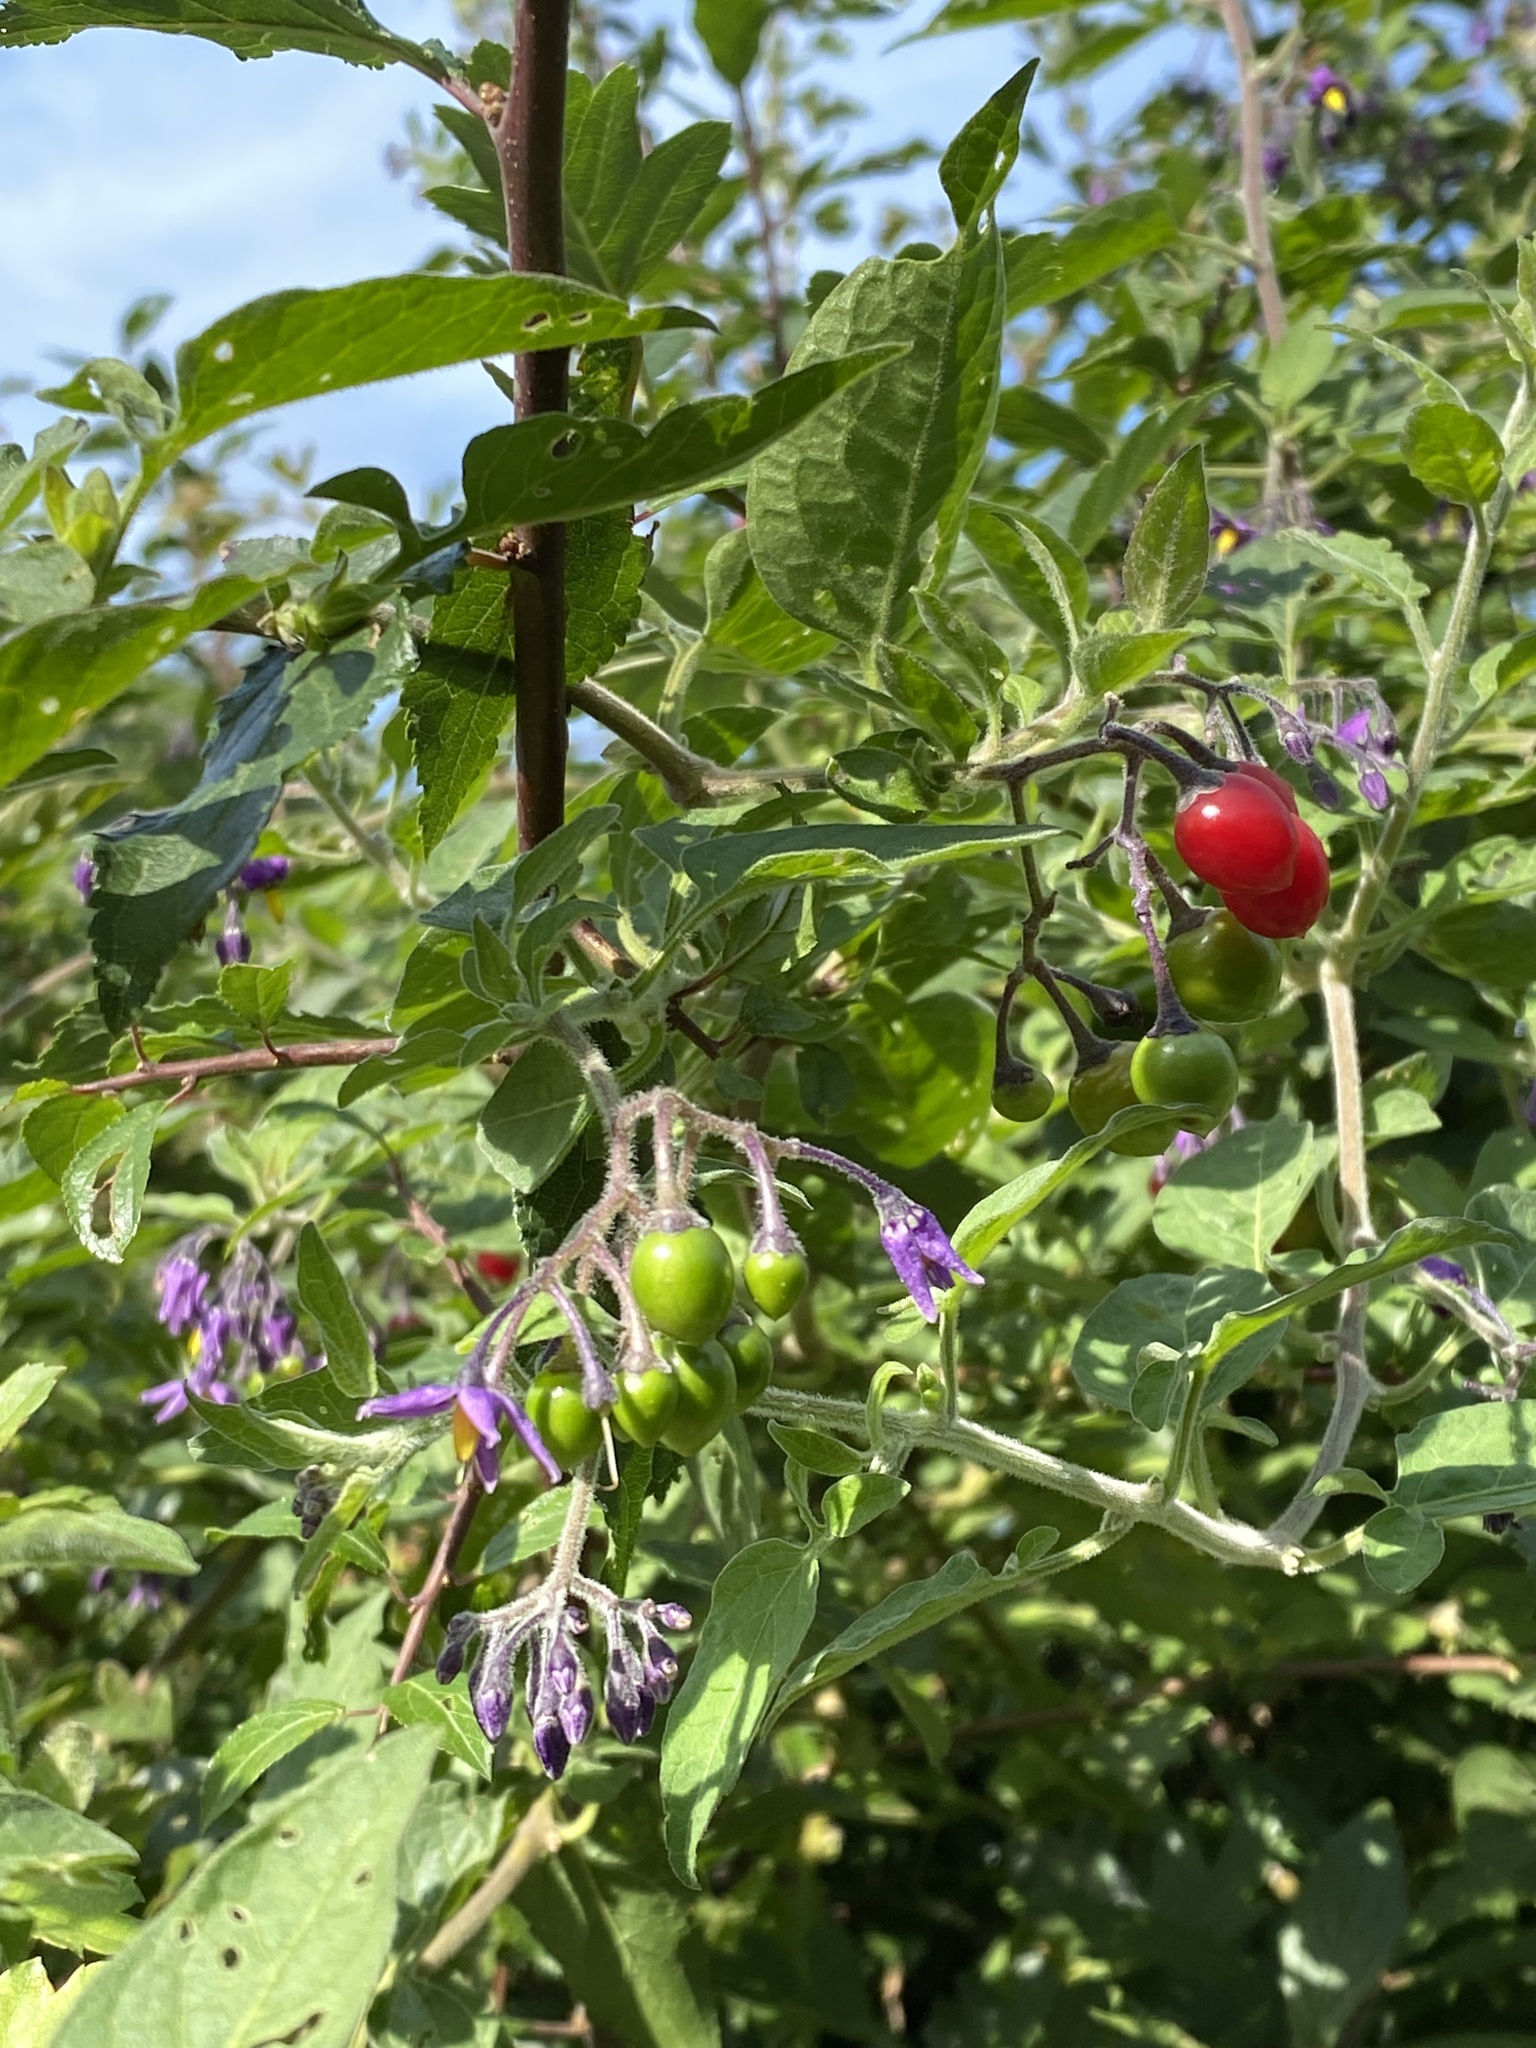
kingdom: Plantae
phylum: Tracheophyta
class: Magnoliopsida
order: Solanales
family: Solanaceae
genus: Solanum
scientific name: Solanum dulcamara
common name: Climbing nightshade
